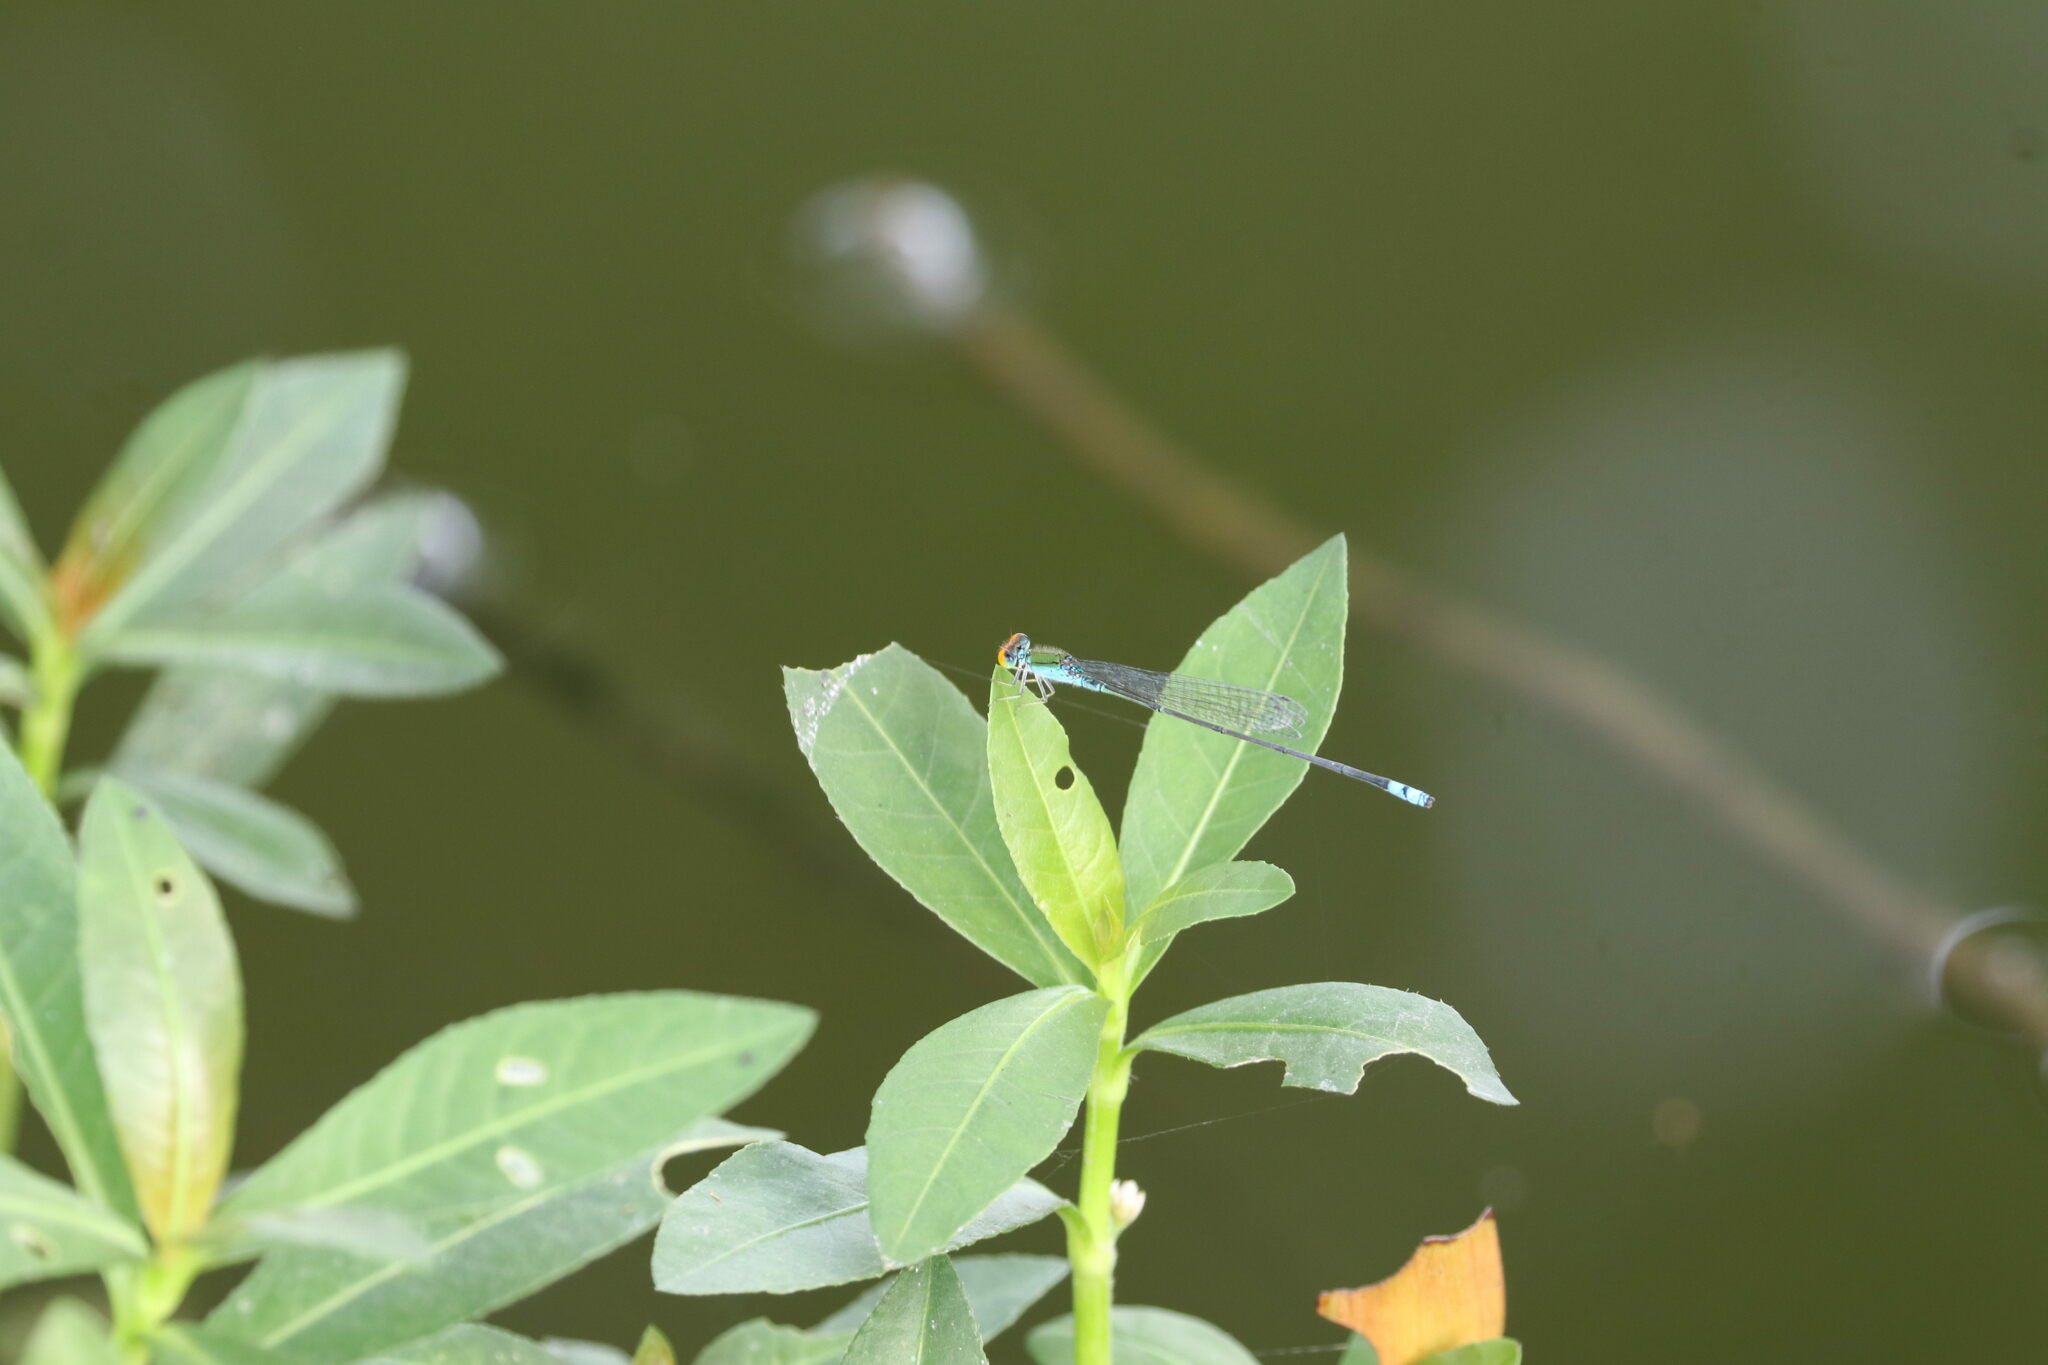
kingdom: Animalia
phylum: Arthropoda
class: Insecta
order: Odonata
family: Coenagrionidae
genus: Pseudagrion
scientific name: Pseudagrion rubriceps
